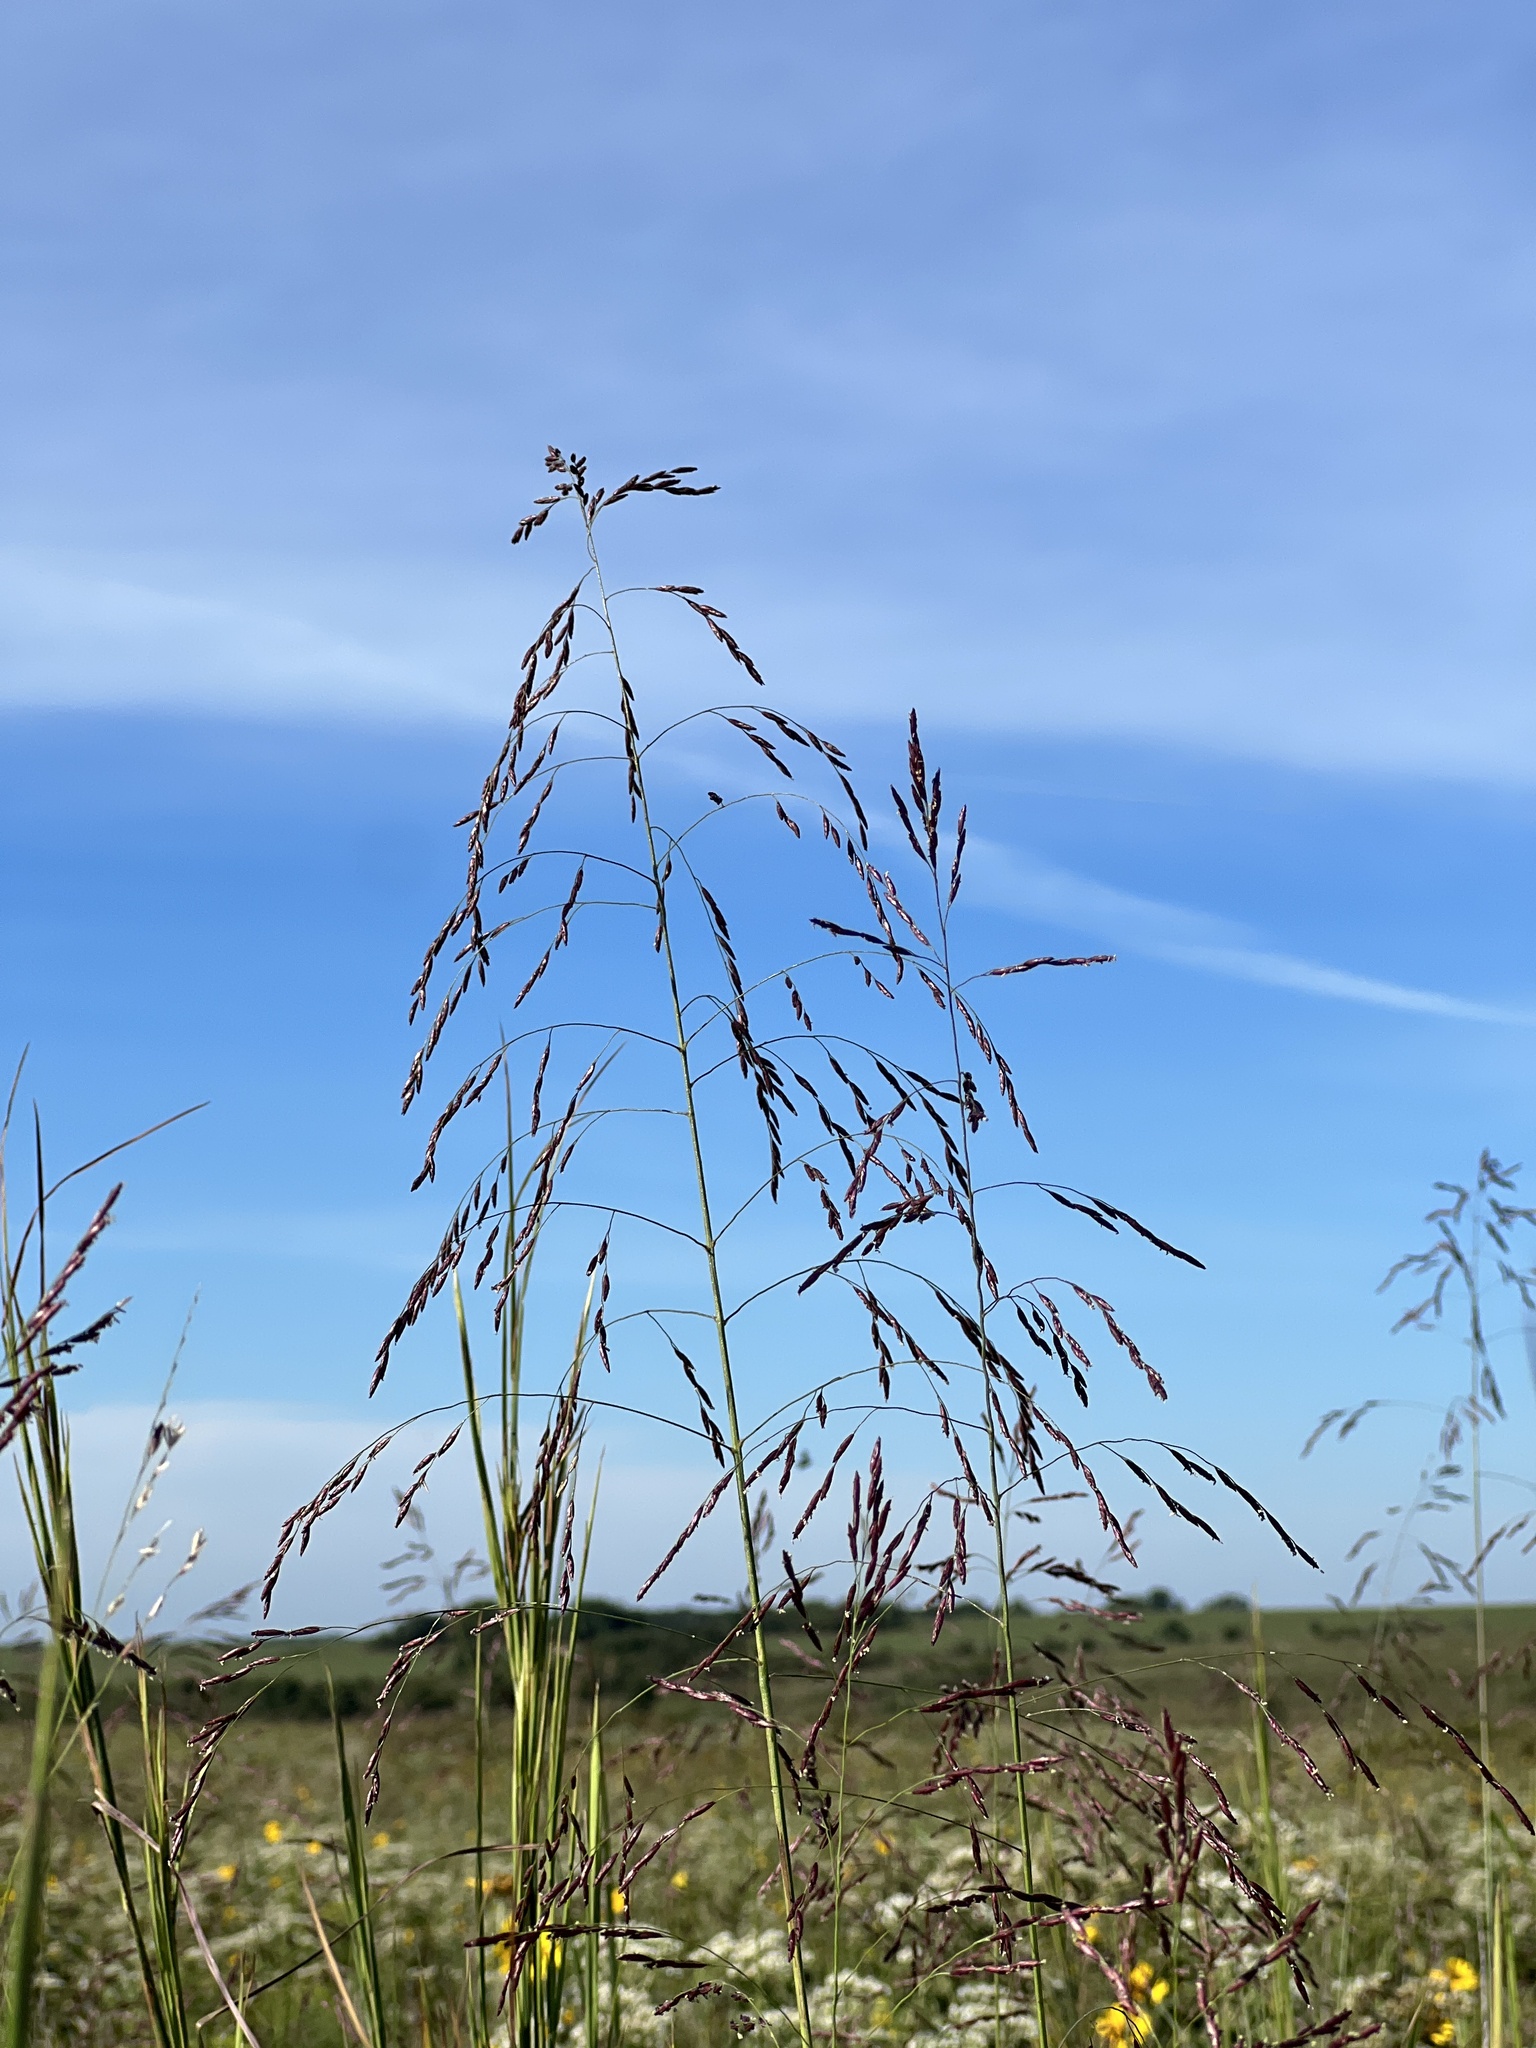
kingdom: Plantae
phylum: Tracheophyta
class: Liliopsida
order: Poales
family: Poaceae
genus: Tridens
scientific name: Tridens flavus
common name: Purpletop
